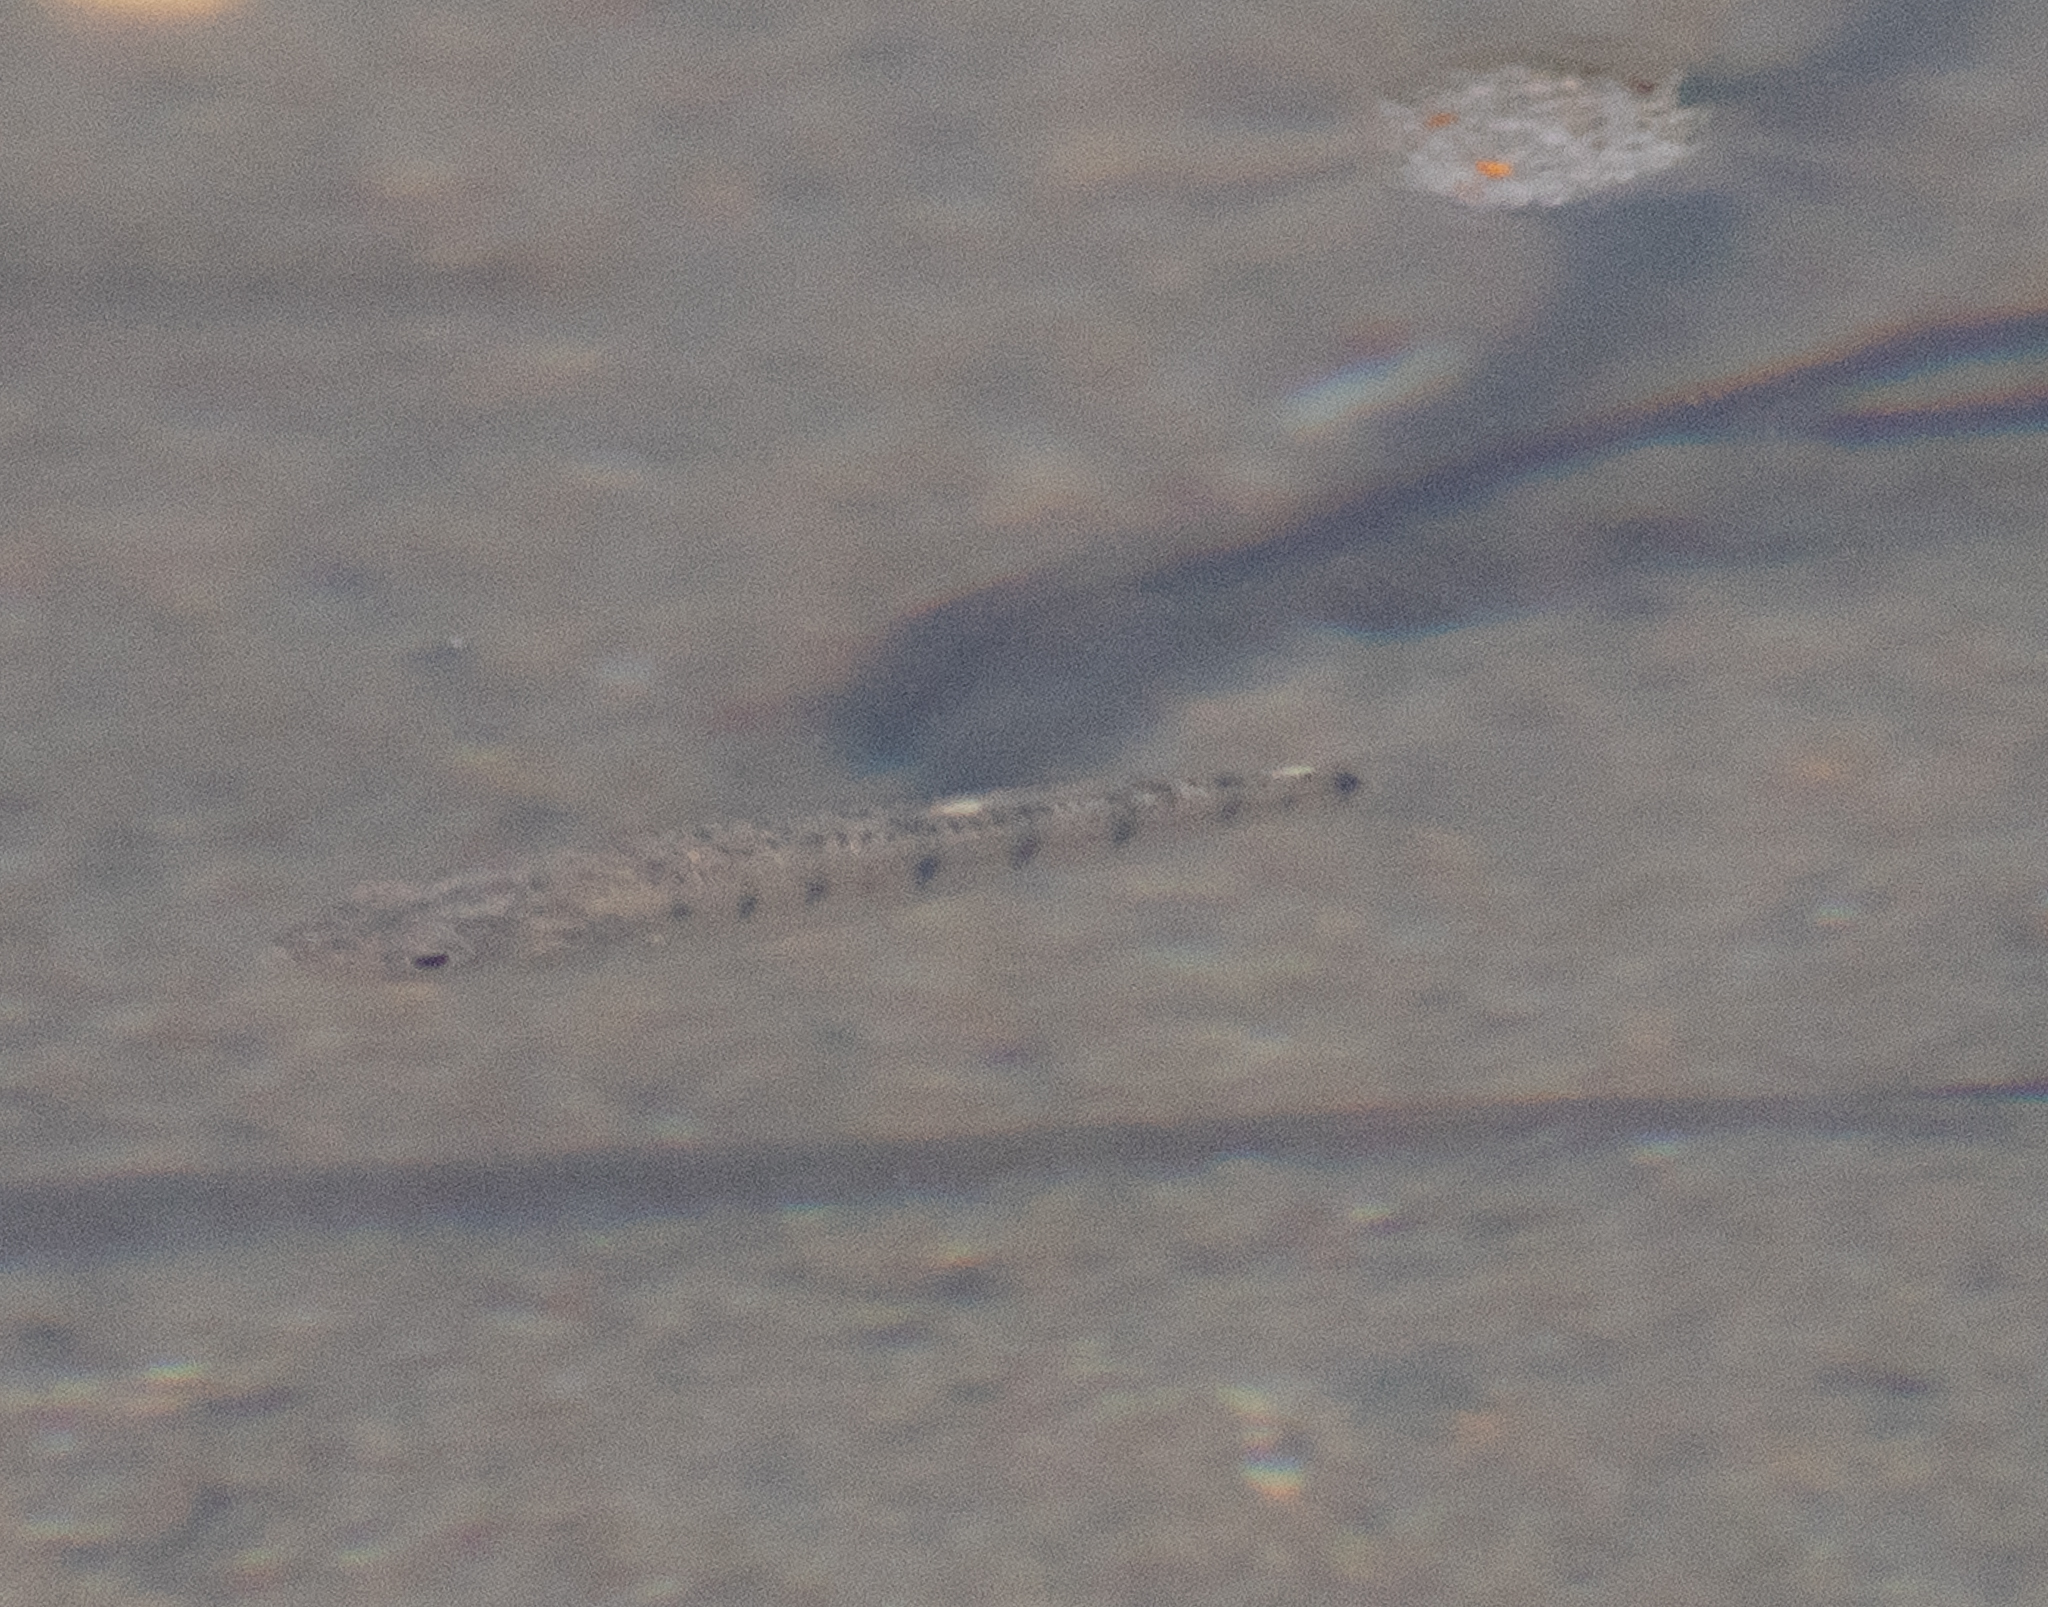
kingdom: Animalia
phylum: Chordata
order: Cyprinodontiformes
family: Fundulidae
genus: Fundulus
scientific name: Fundulus majalis
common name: Striped killifish
